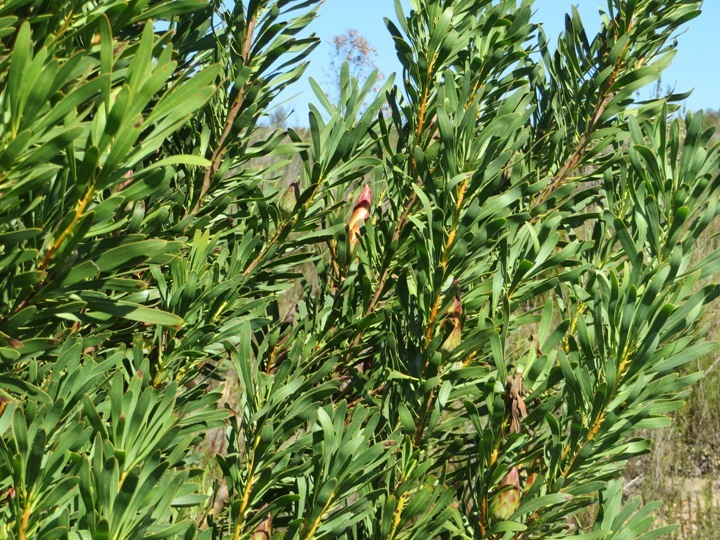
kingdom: Plantae
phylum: Tracheophyta
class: Magnoliopsida
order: Proteales
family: Proteaceae
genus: Protea
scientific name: Protea repens
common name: Sugarbush
